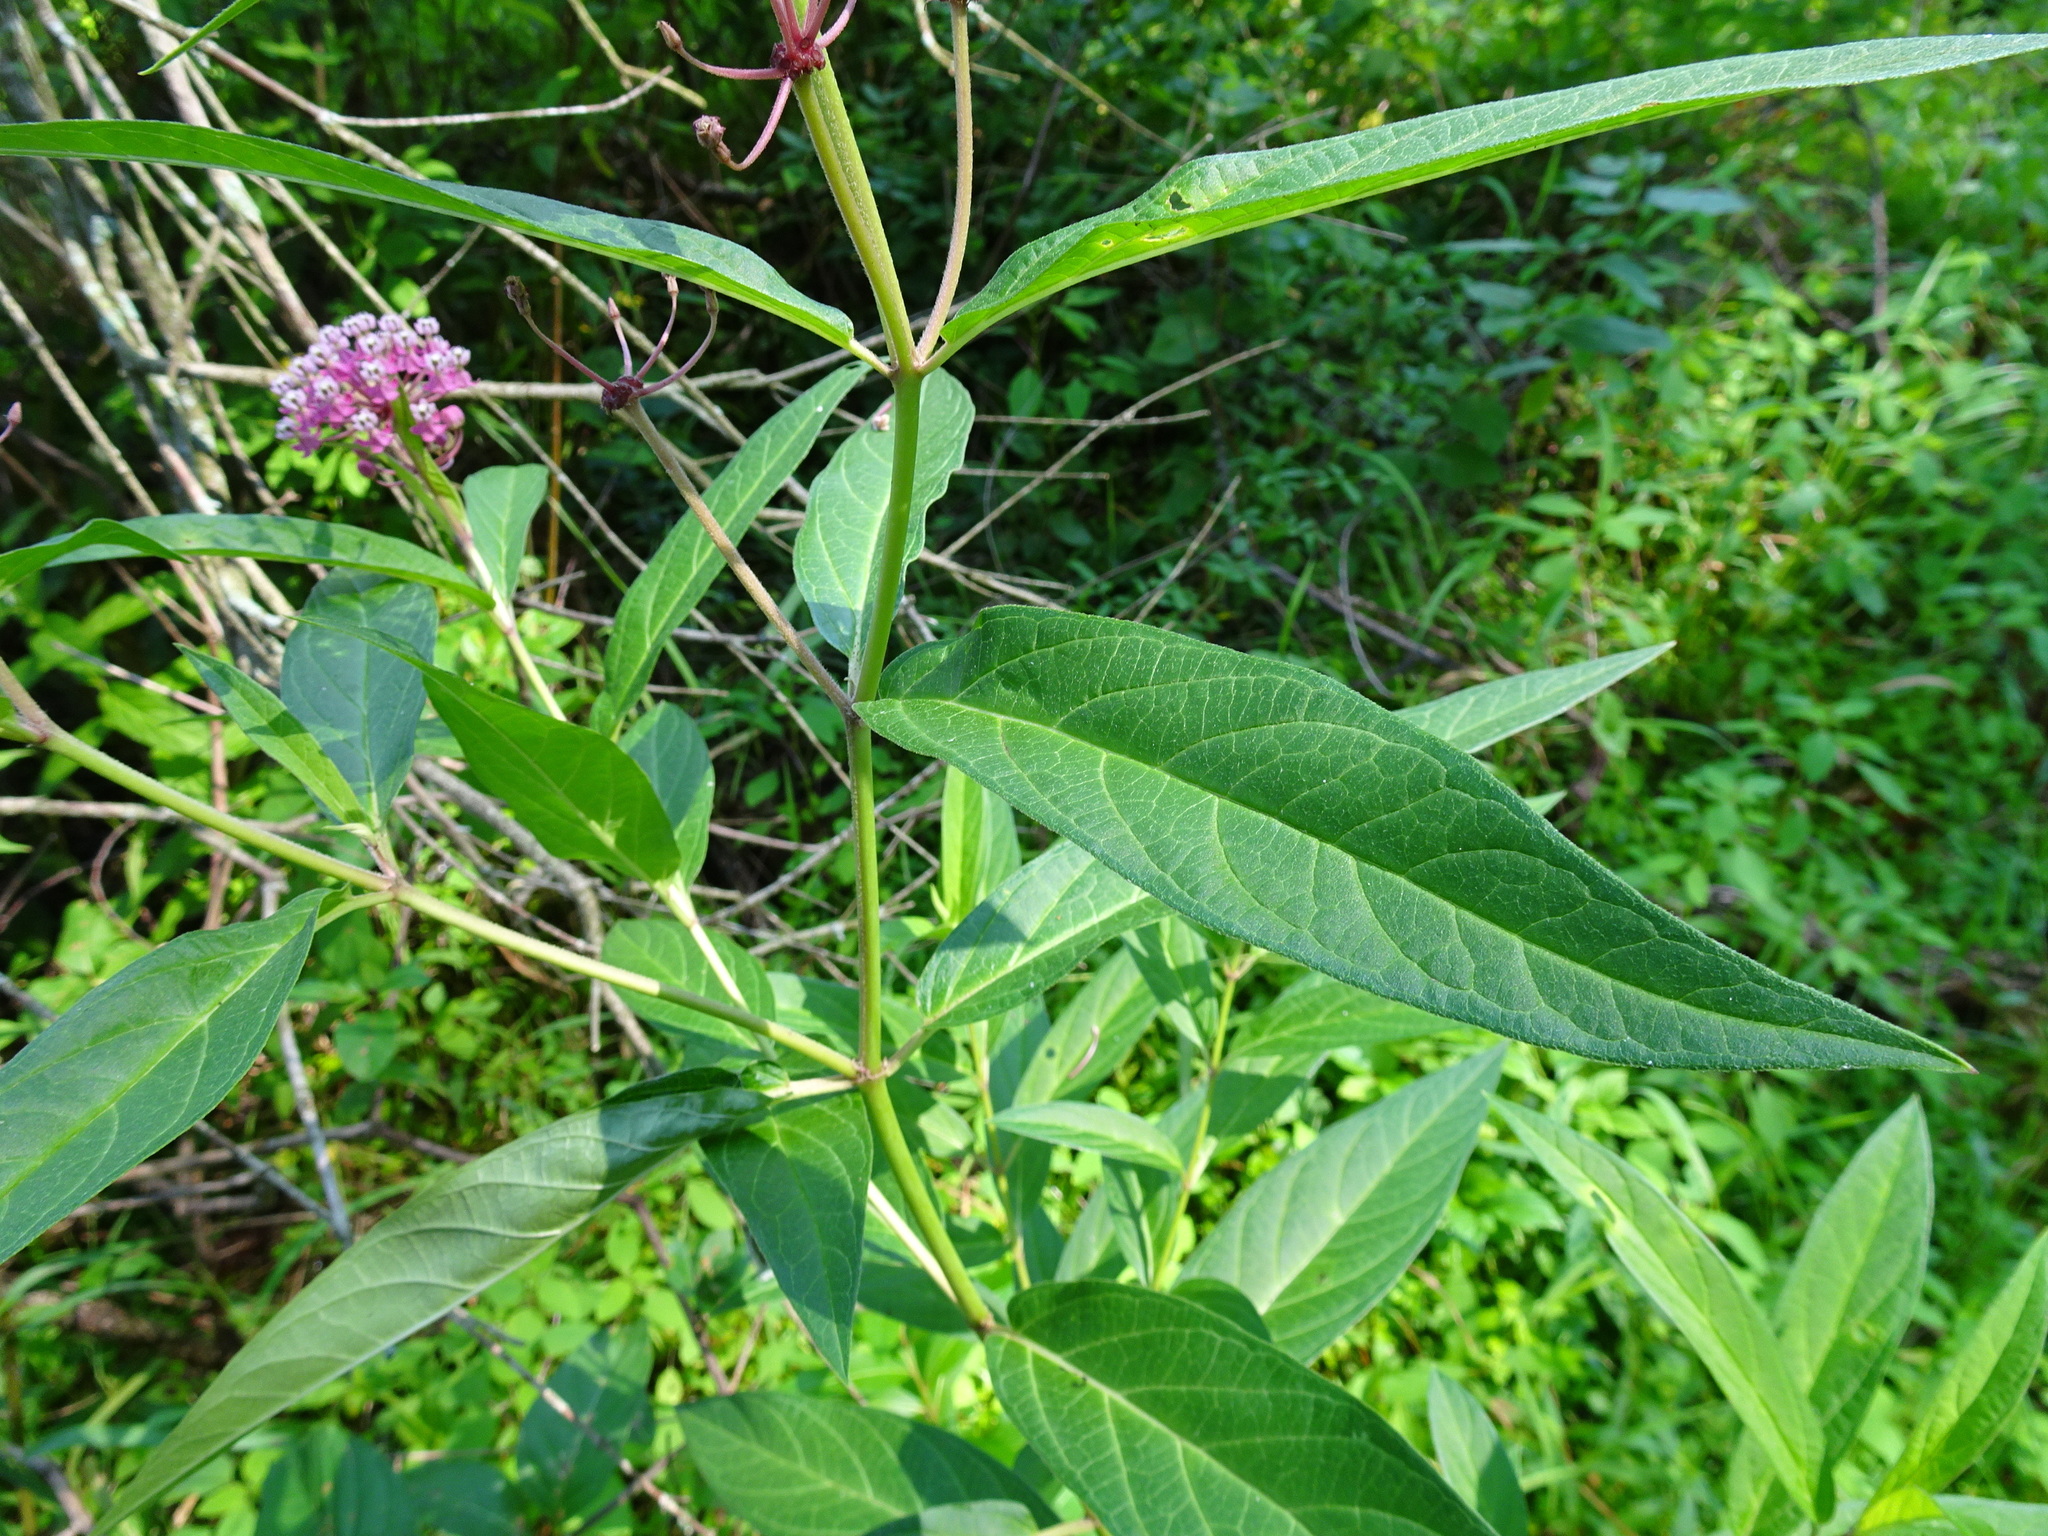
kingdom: Plantae
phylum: Tracheophyta
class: Magnoliopsida
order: Gentianales
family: Apocynaceae
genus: Asclepias
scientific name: Asclepias incarnata
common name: Swamp milkweed
